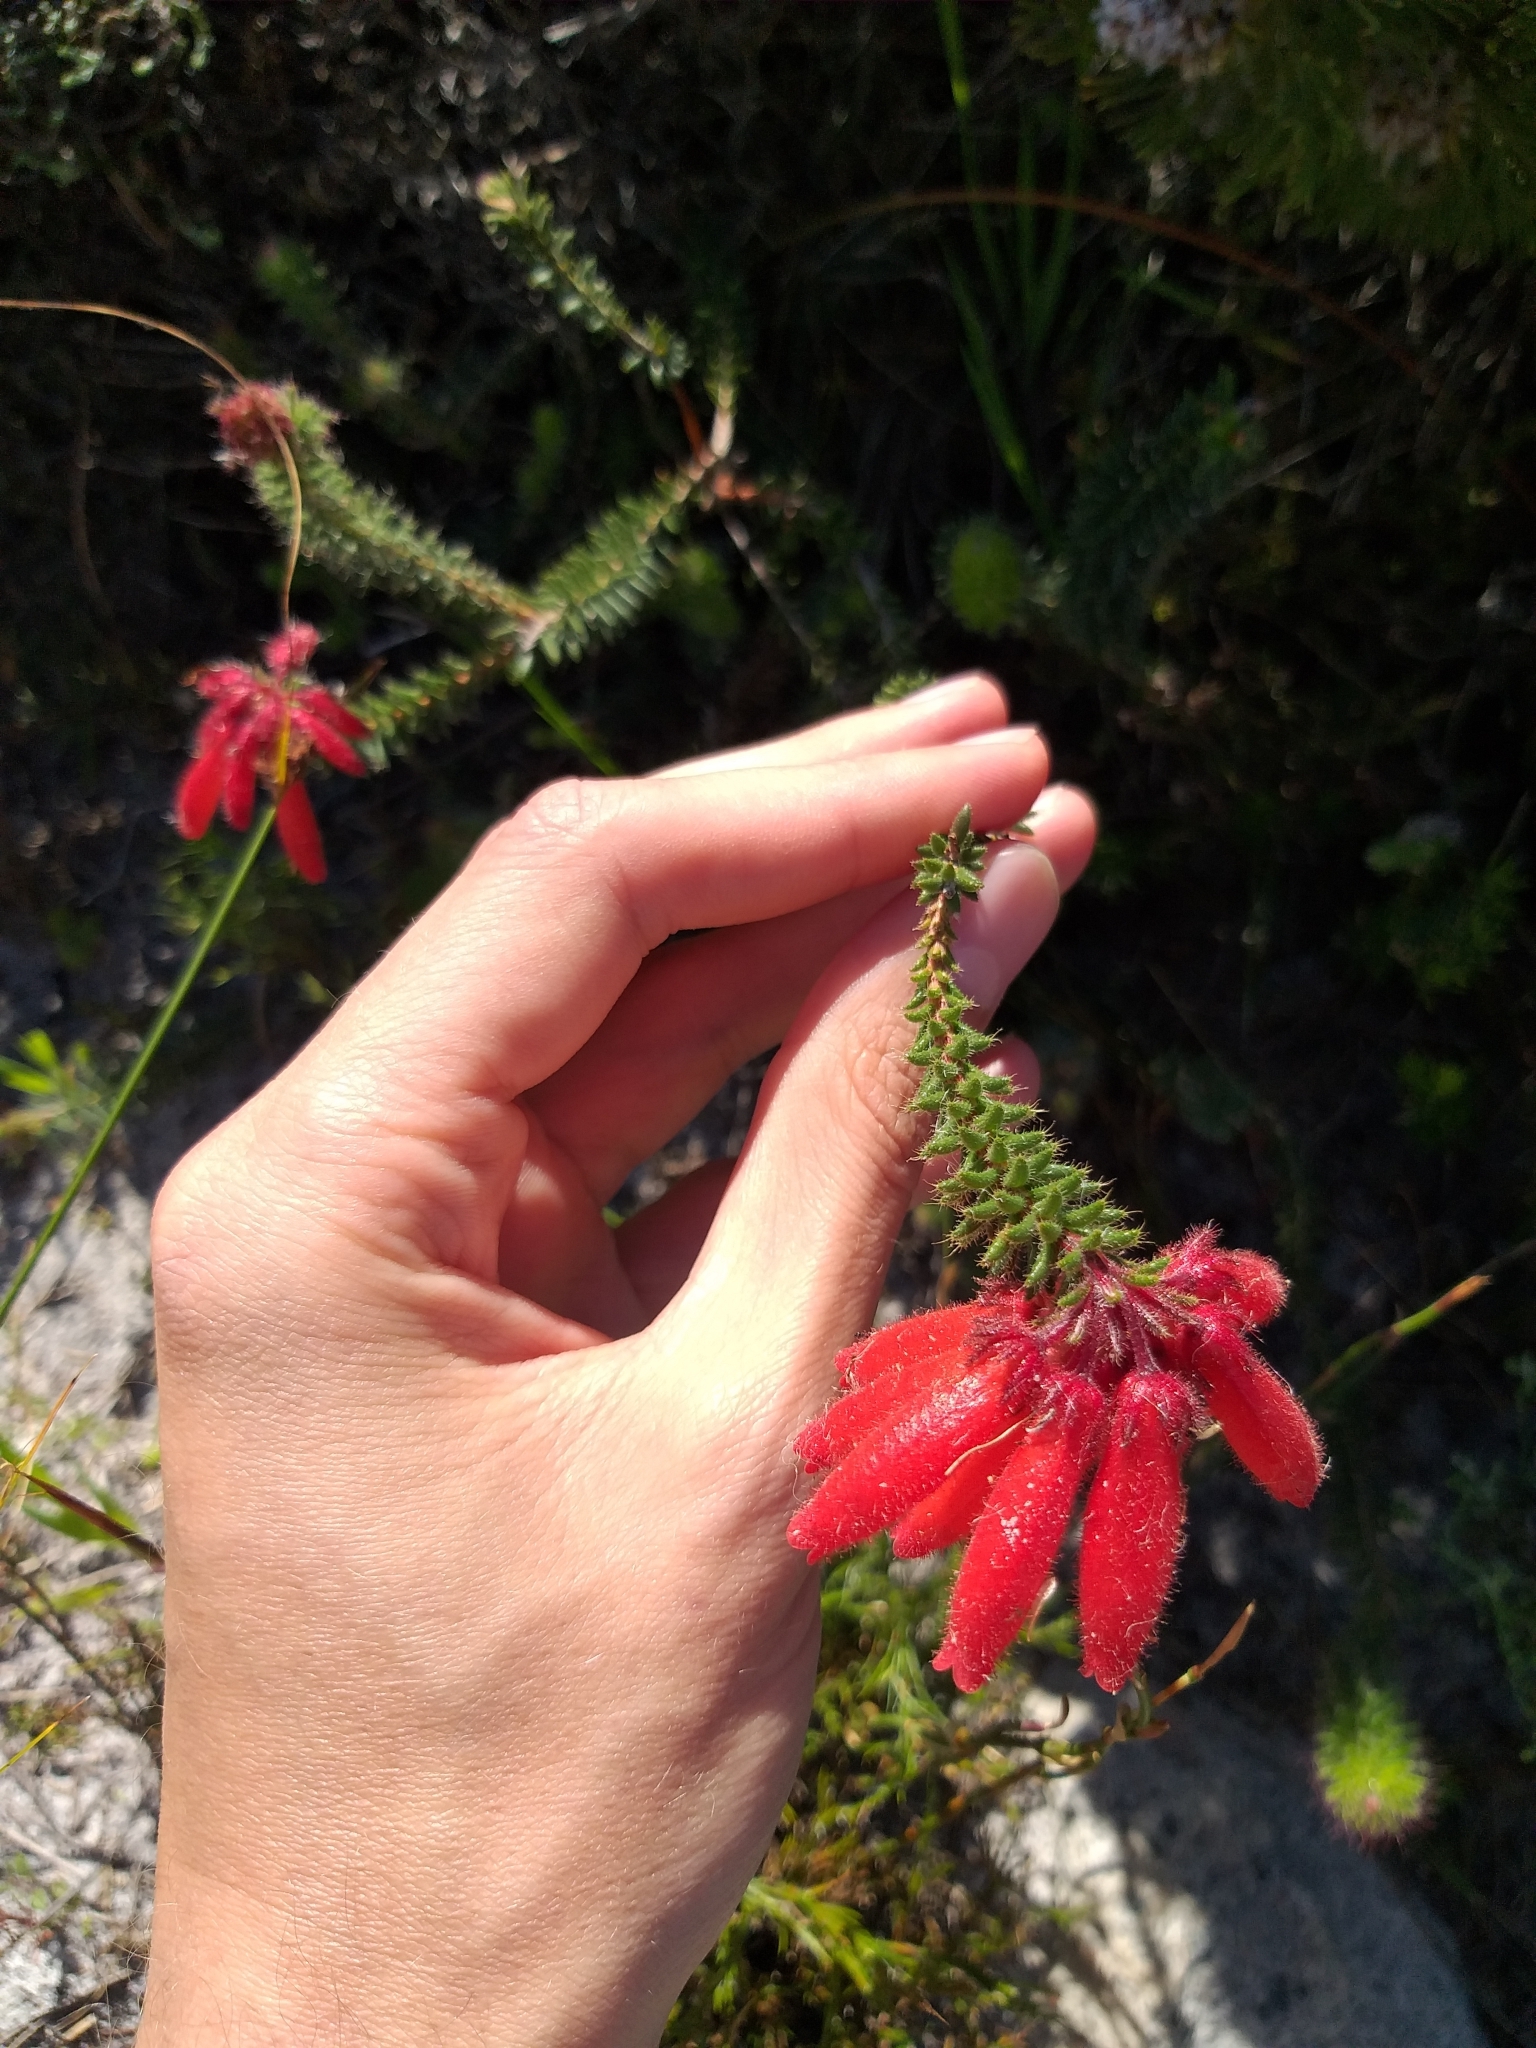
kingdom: Plantae
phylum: Tracheophyta
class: Magnoliopsida
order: Ericales
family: Ericaceae
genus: Erica
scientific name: Erica cerinthoides
